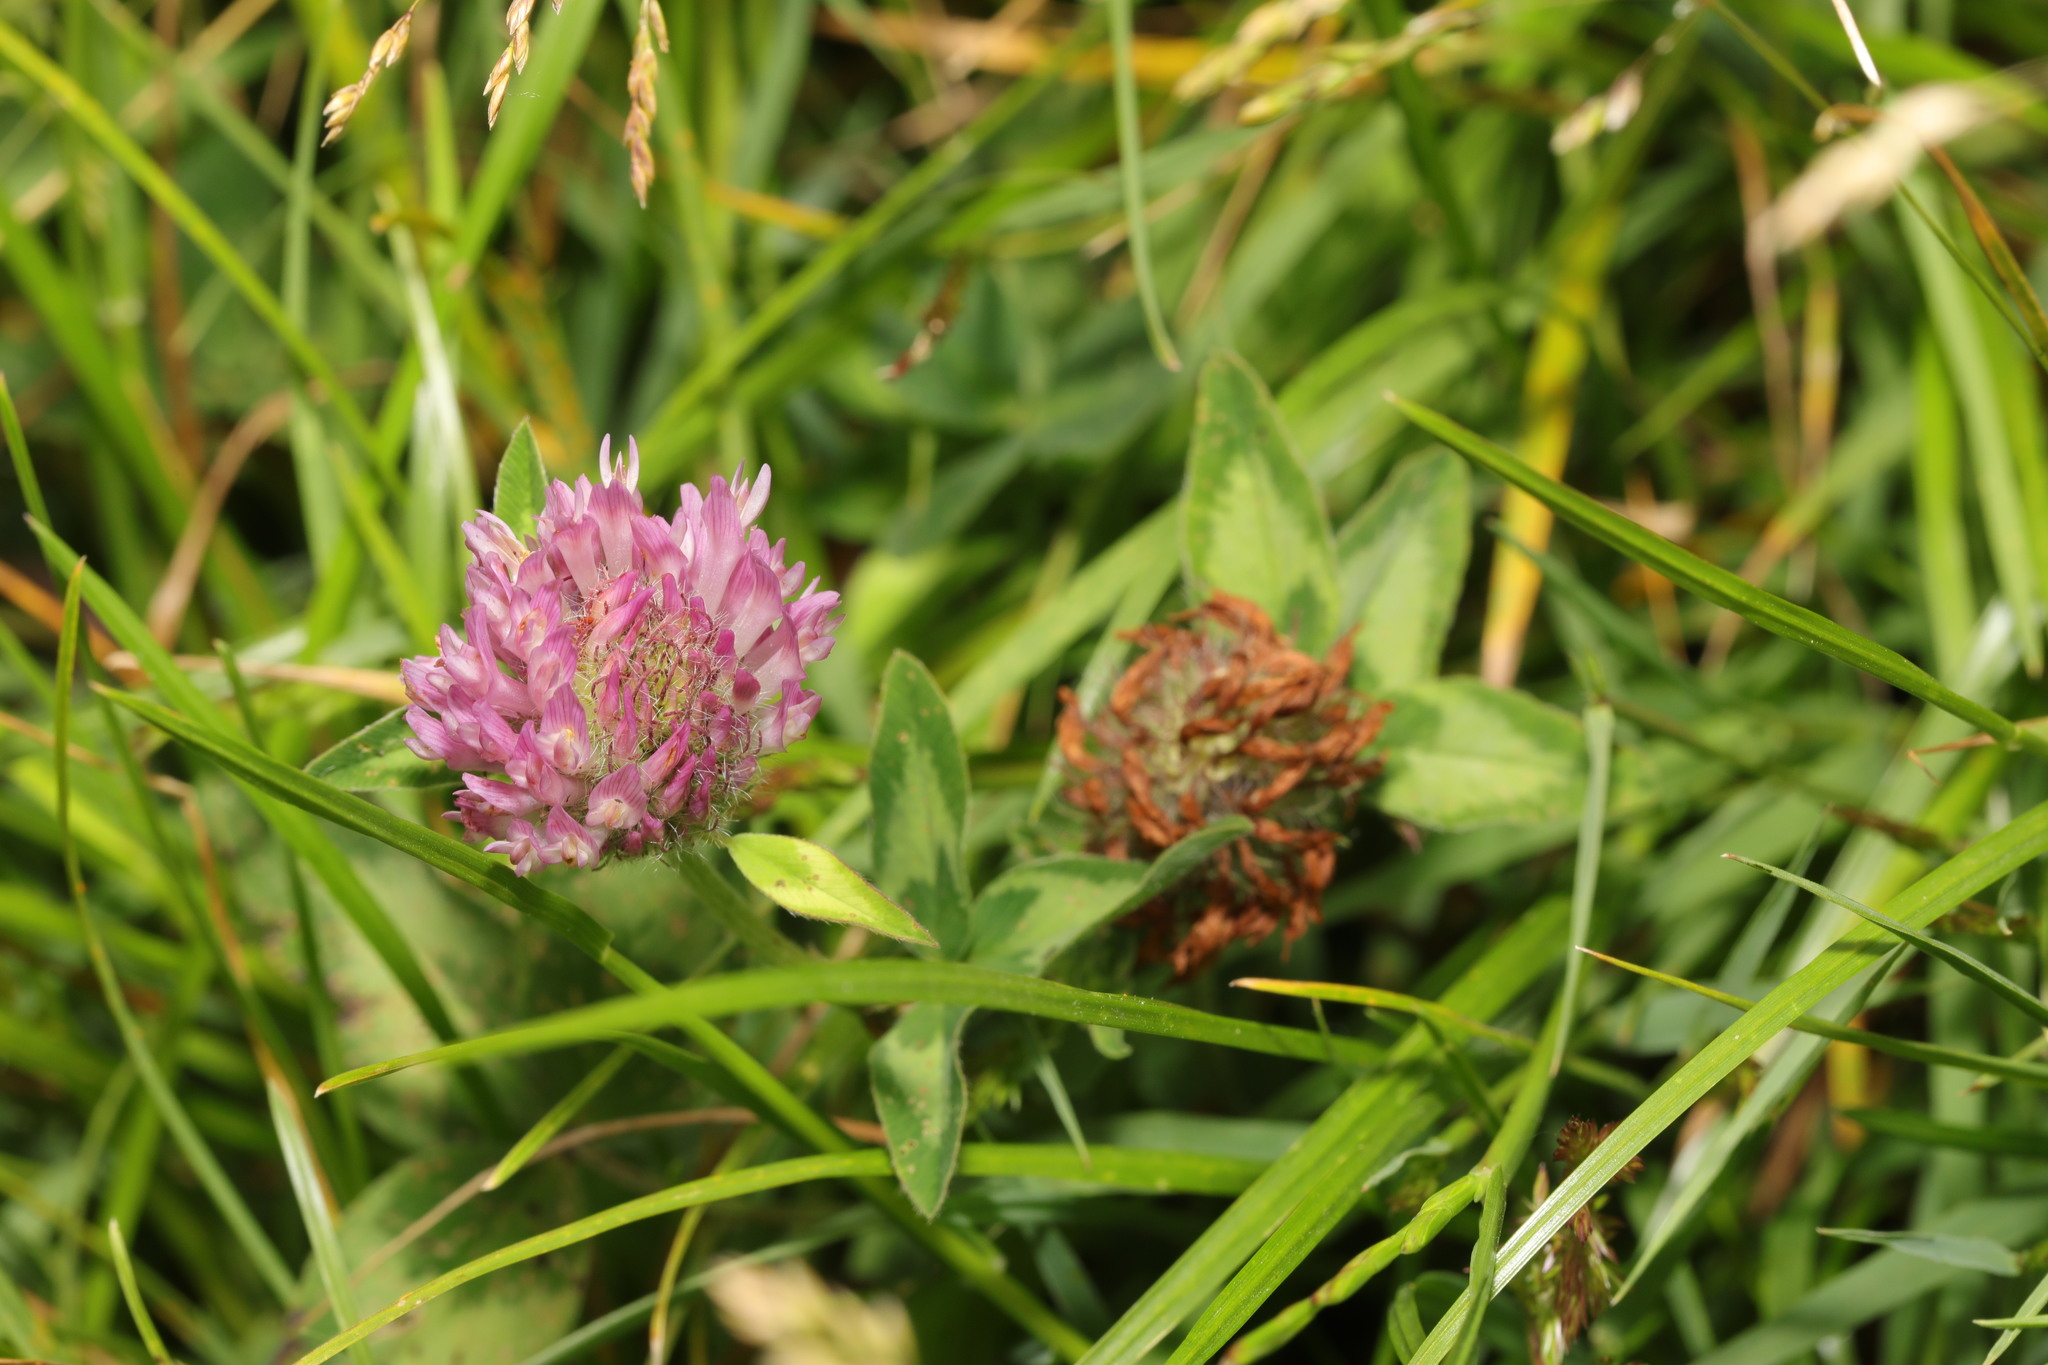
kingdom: Plantae
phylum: Tracheophyta
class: Magnoliopsida
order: Fabales
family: Fabaceae
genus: Trifolium
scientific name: Trifolium pratense
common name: Red clover
